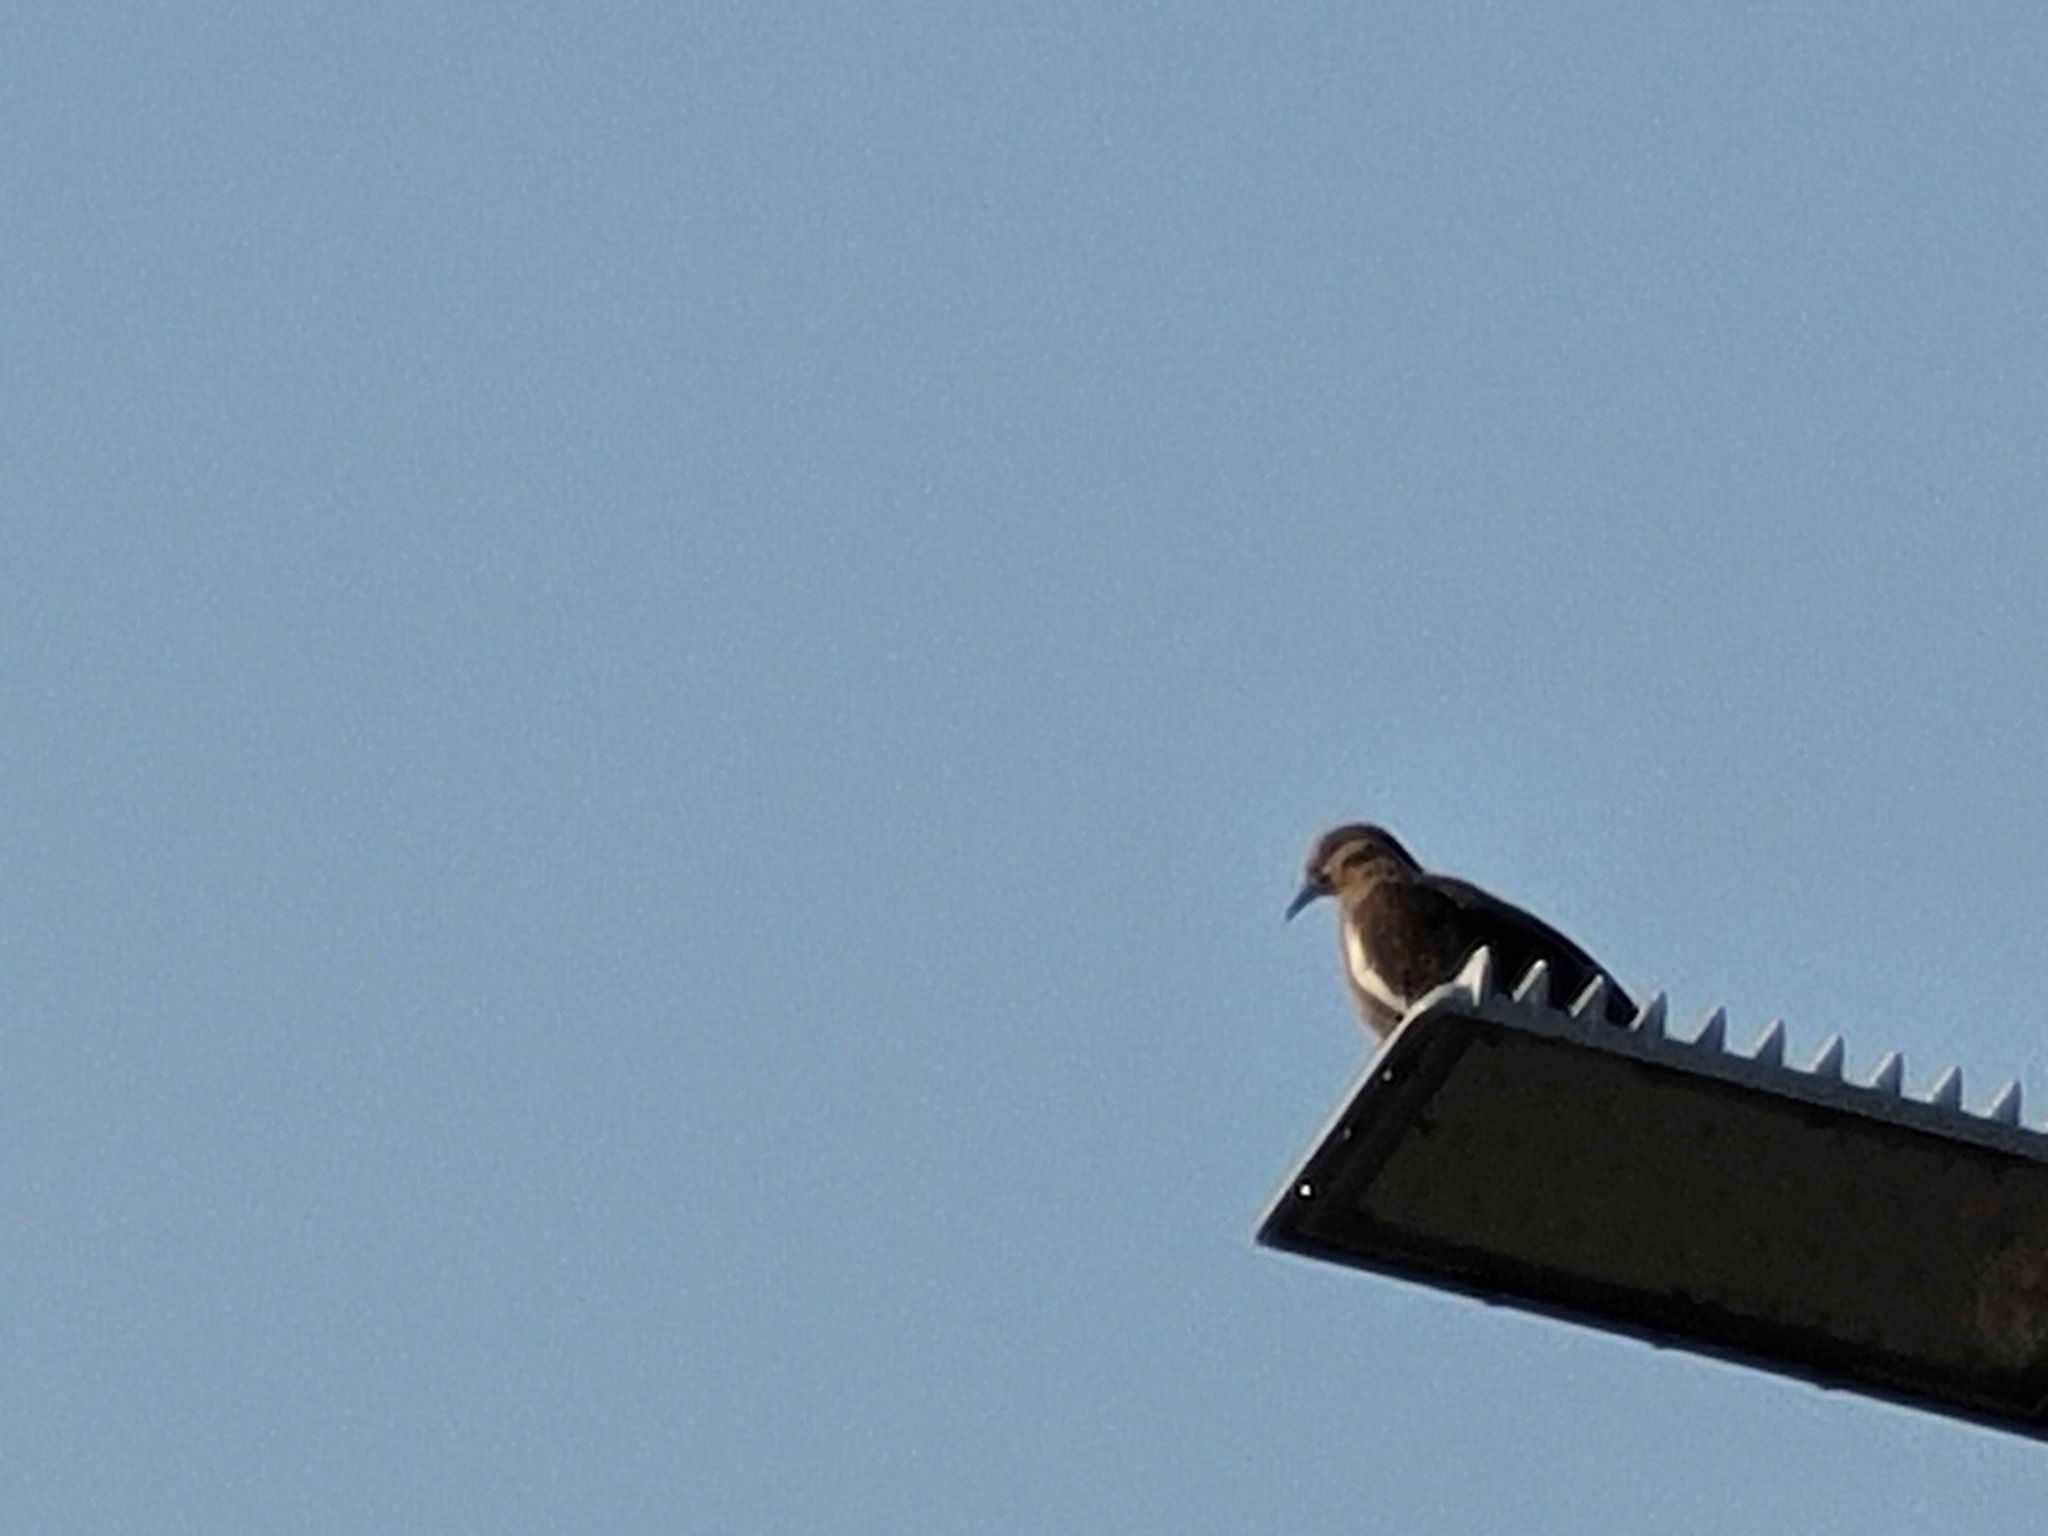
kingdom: Animalia
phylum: Chordata
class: Aves
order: Columbiformes
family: Columbidae
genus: Zenaida
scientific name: Zenaida asiatica
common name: White-winged dove
